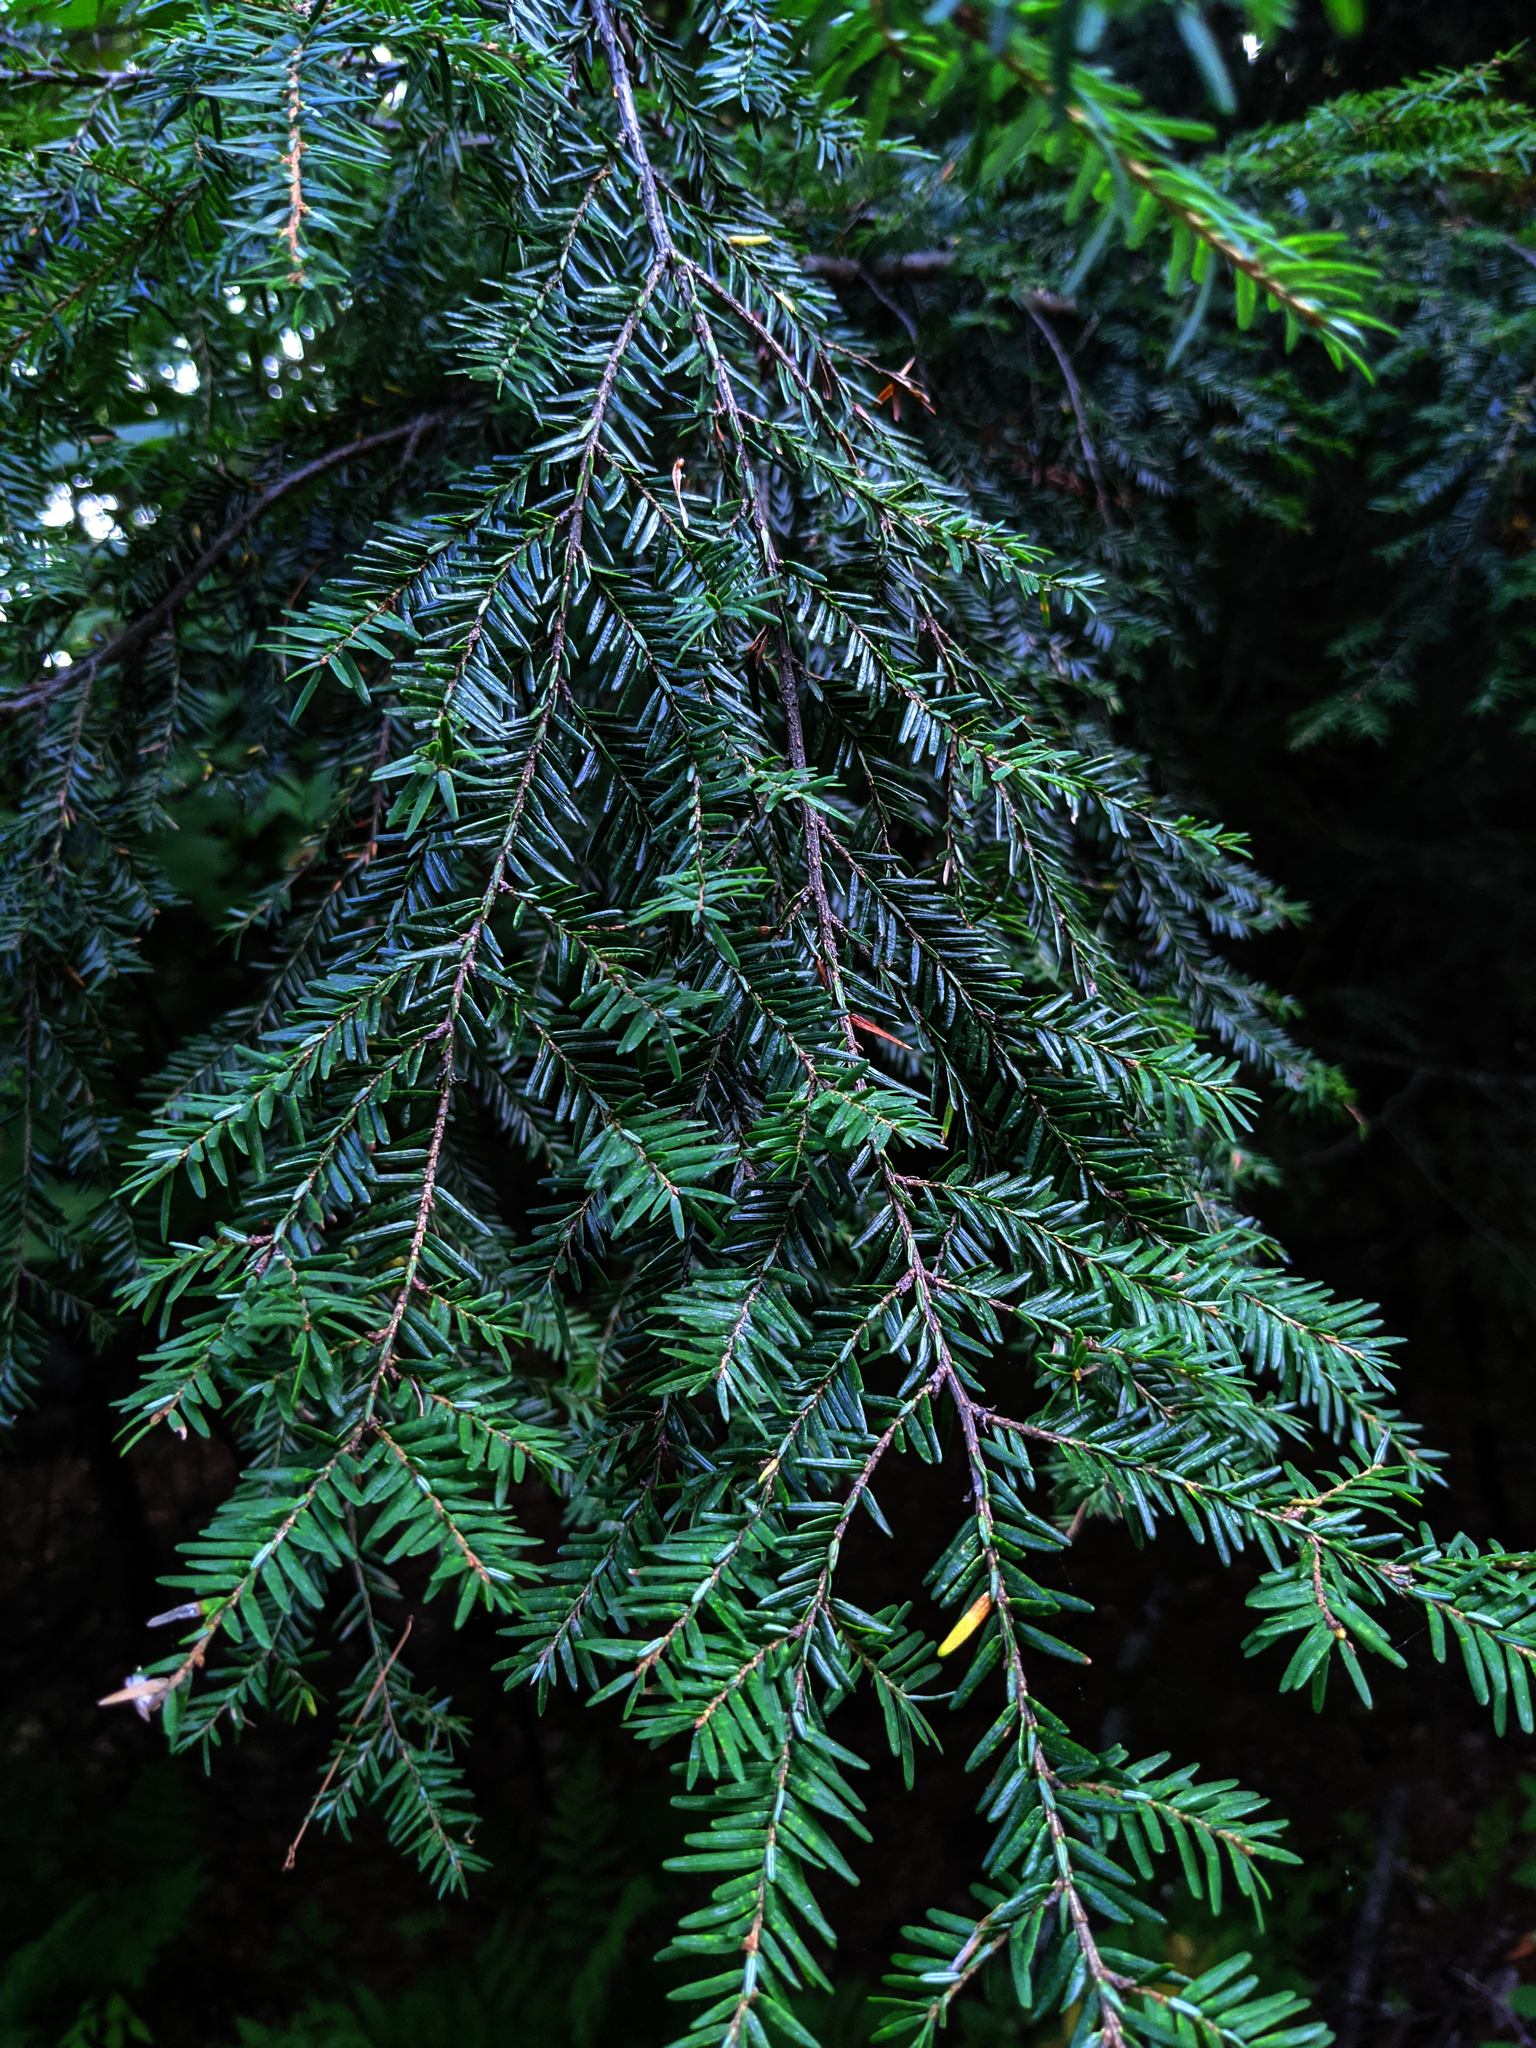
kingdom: Plantae
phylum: Tracheophyta
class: Pinopsida
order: Pinales
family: Pinaceae
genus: Tsuga
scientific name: Tsuga canadensis
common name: Eastern hemlock
